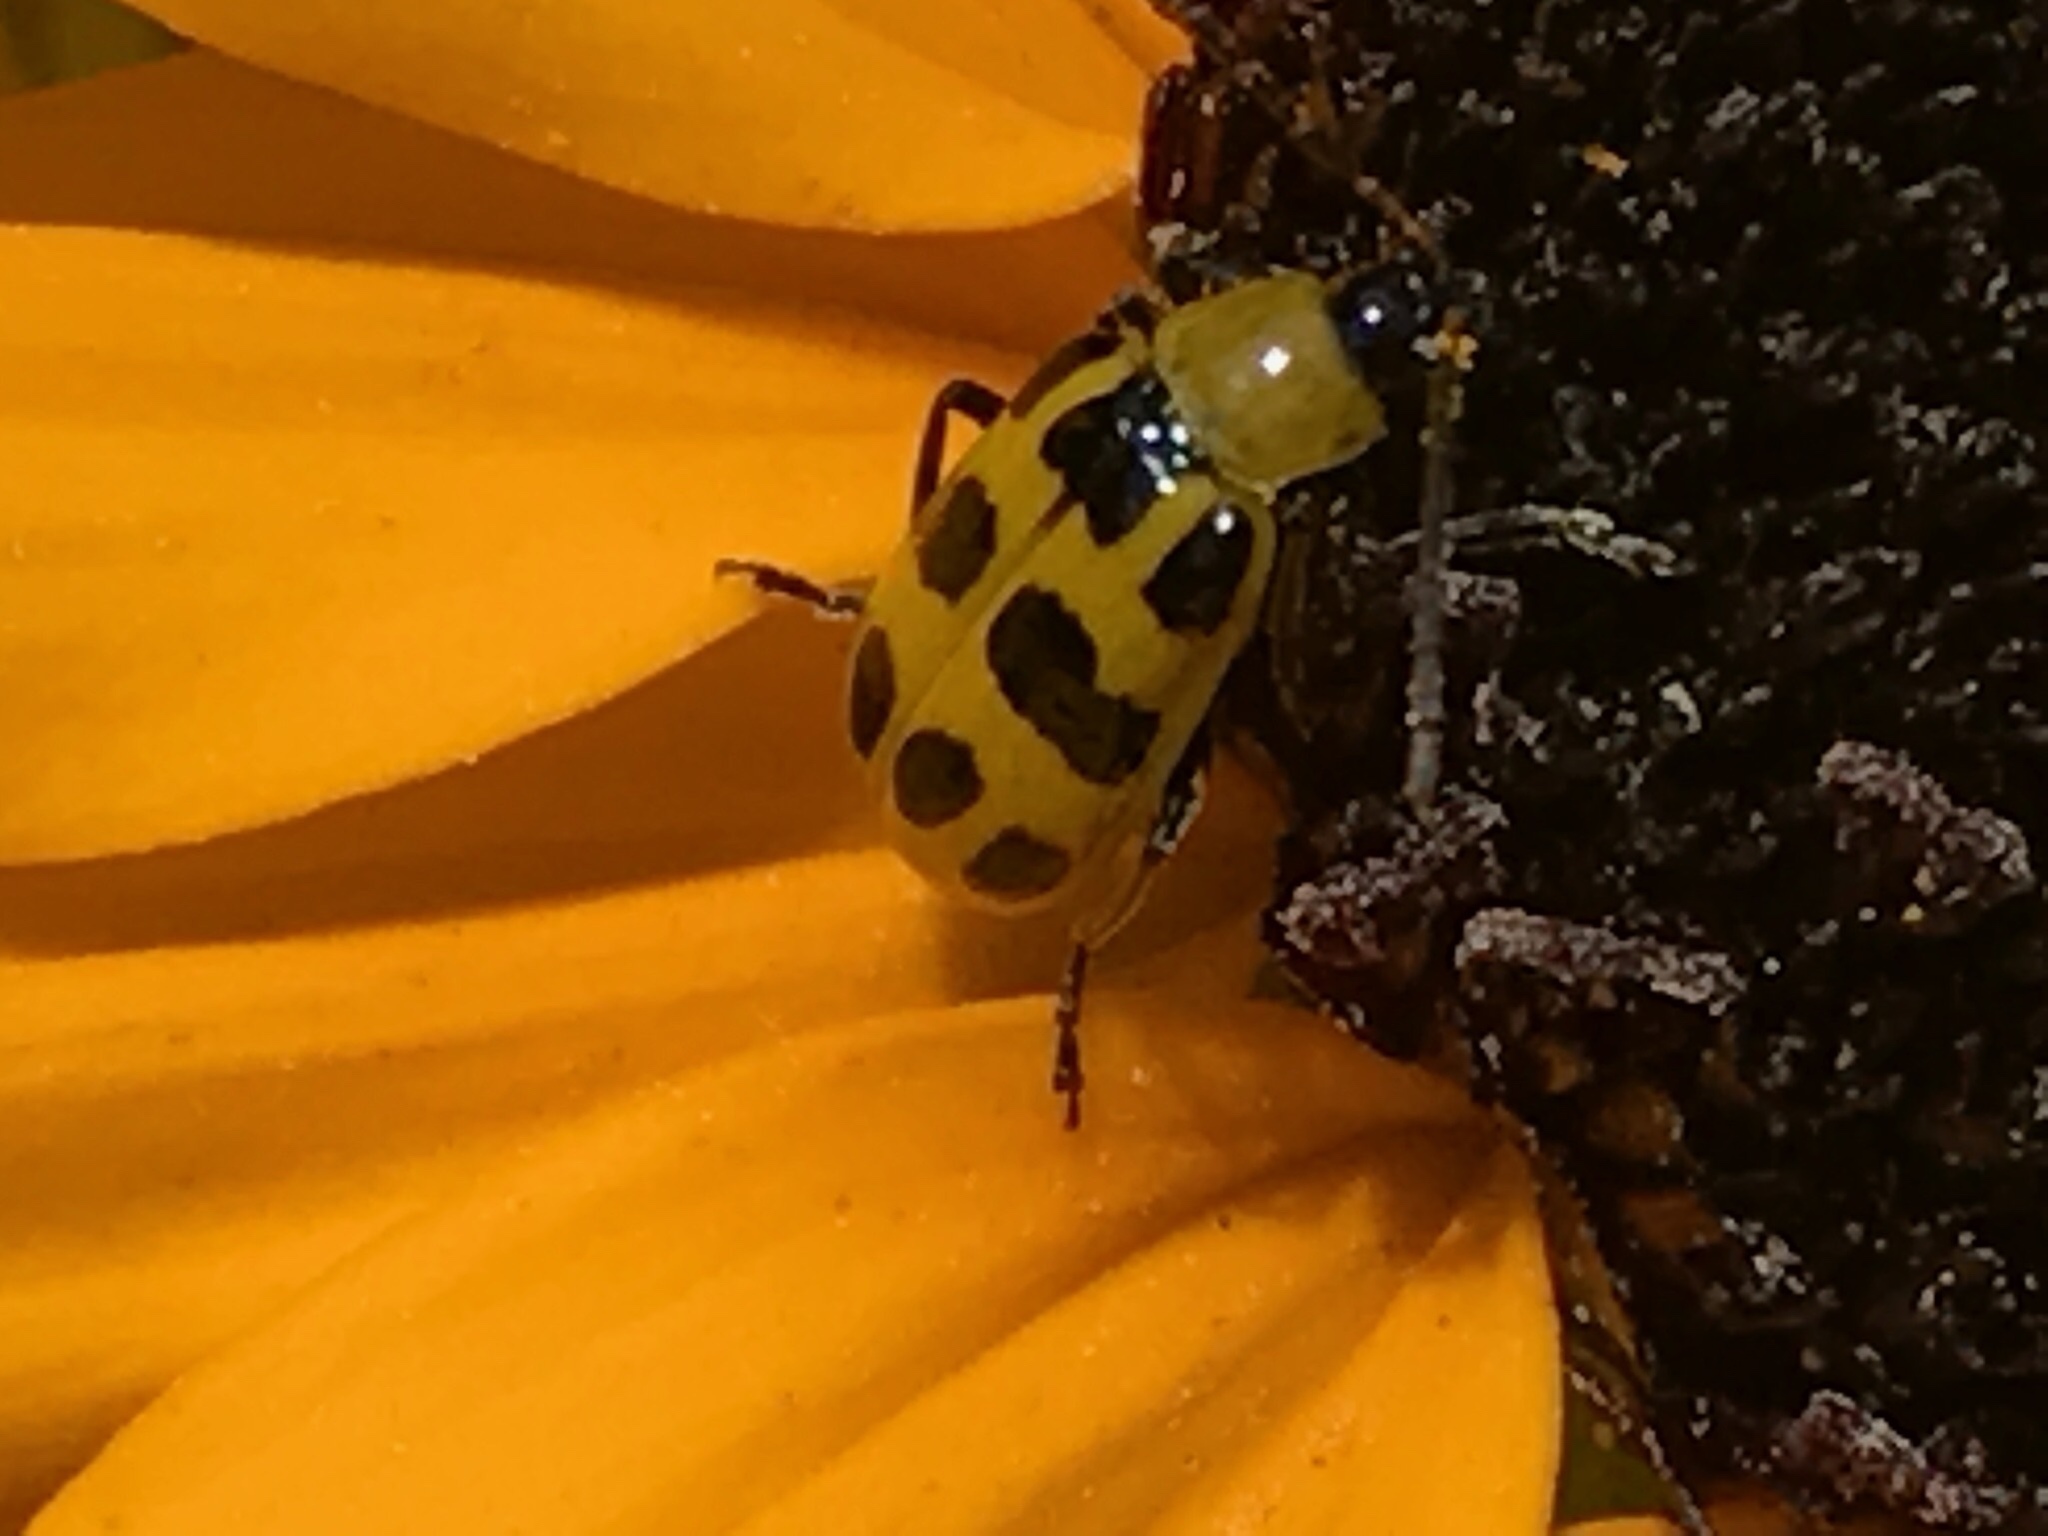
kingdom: Animalia
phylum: Arthropoda
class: Insecta
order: Coleoptera
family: Chrysomelidae
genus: Diabrotica
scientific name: Diabrotica undecimpunctata
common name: Spotted cucumber beetle
